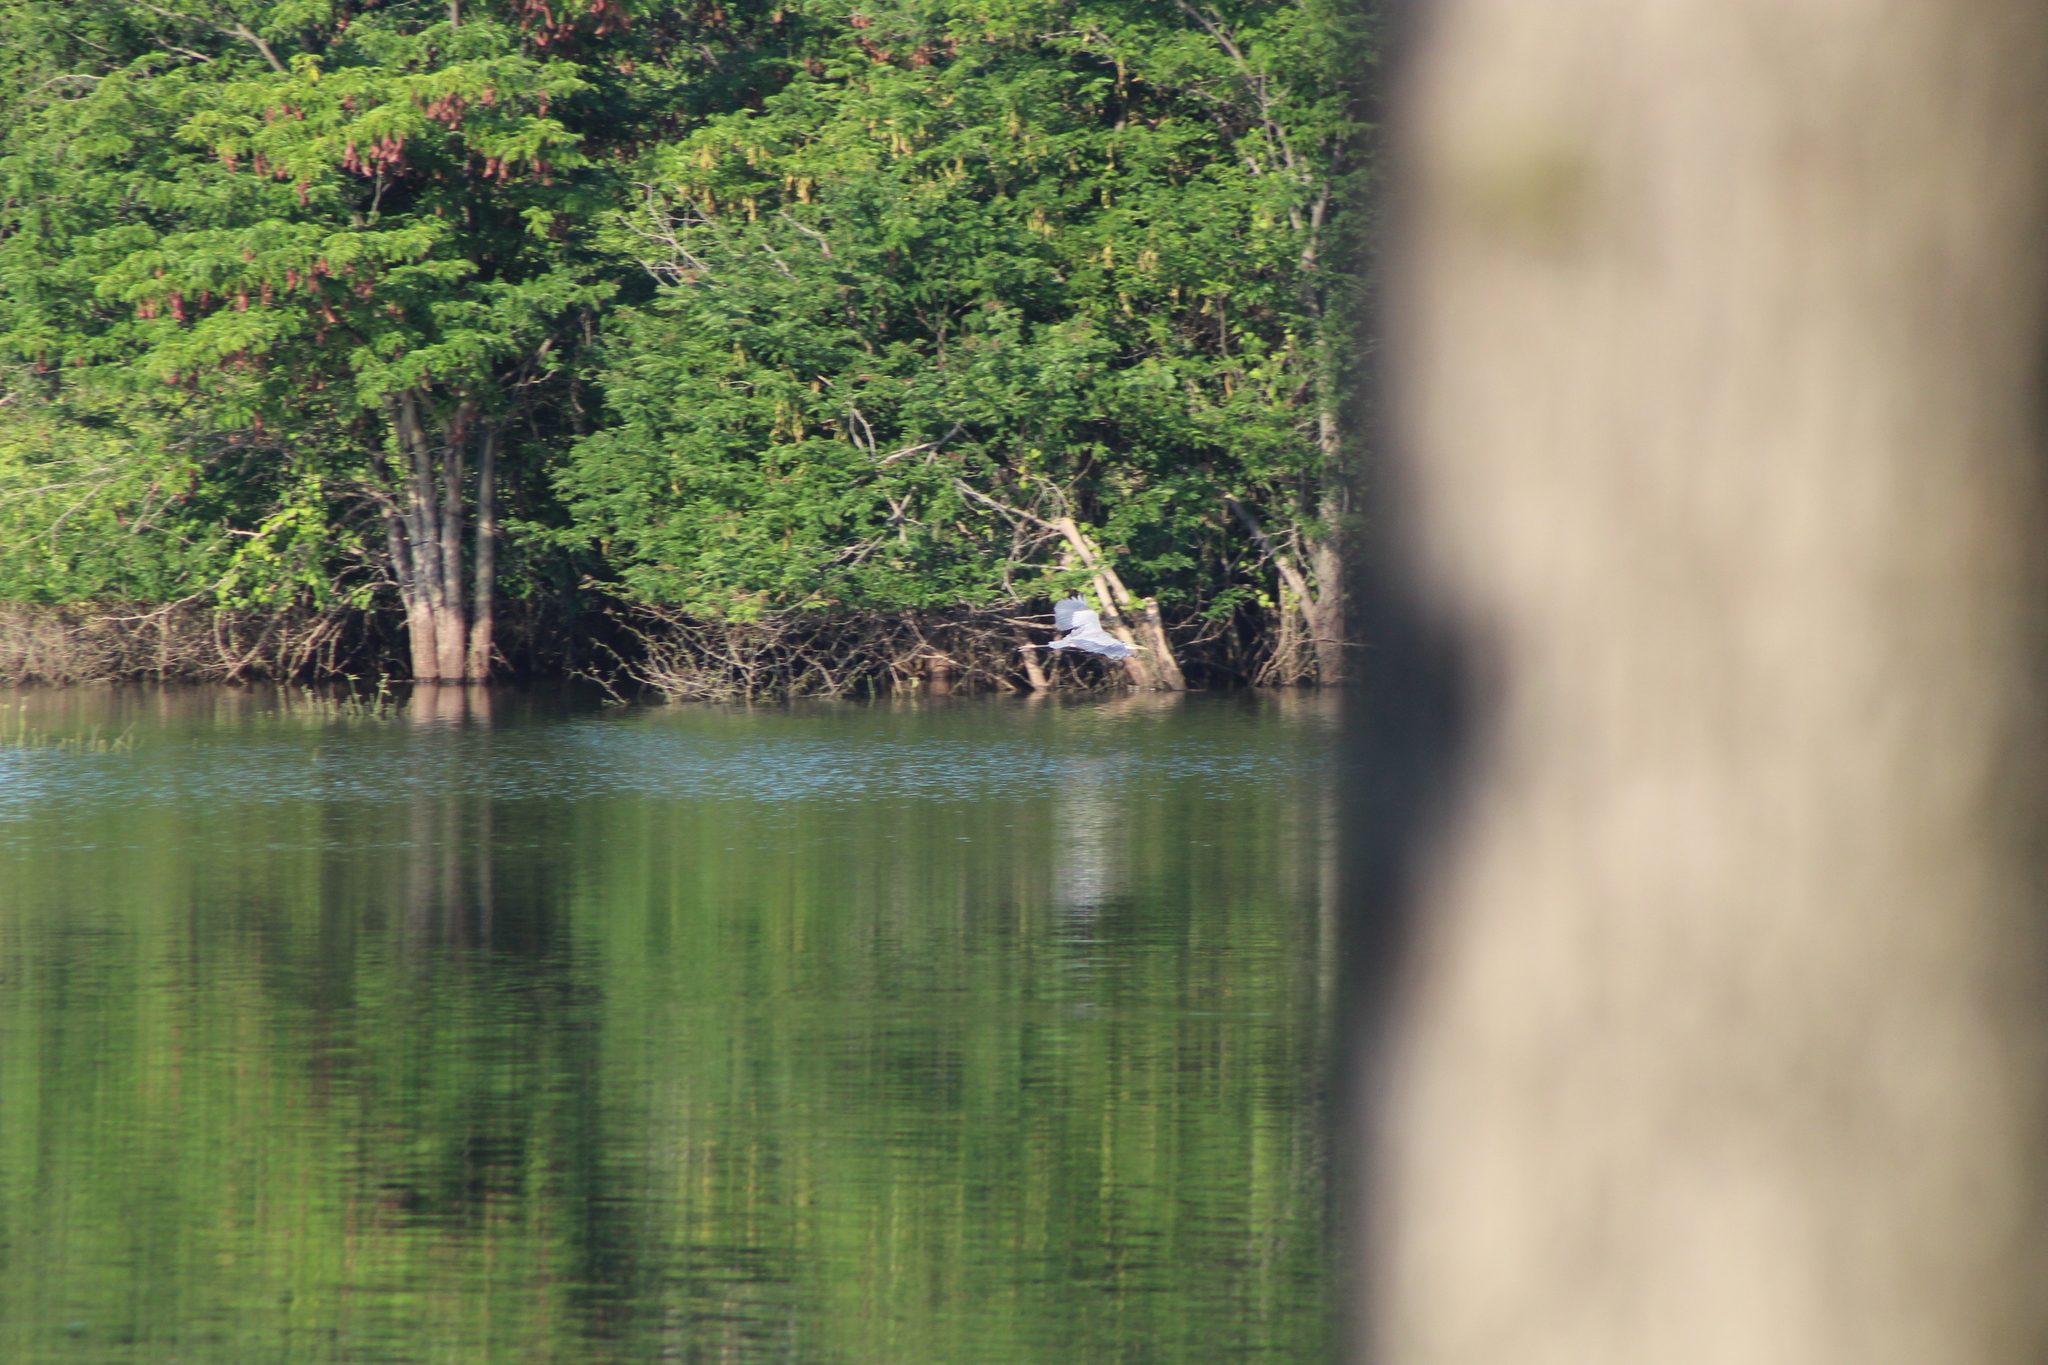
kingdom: Animalia
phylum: Chordata
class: Aves
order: Pelecaniformes
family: Ardeidae
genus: Ardea
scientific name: Ardea herodias
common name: Great blue heron
